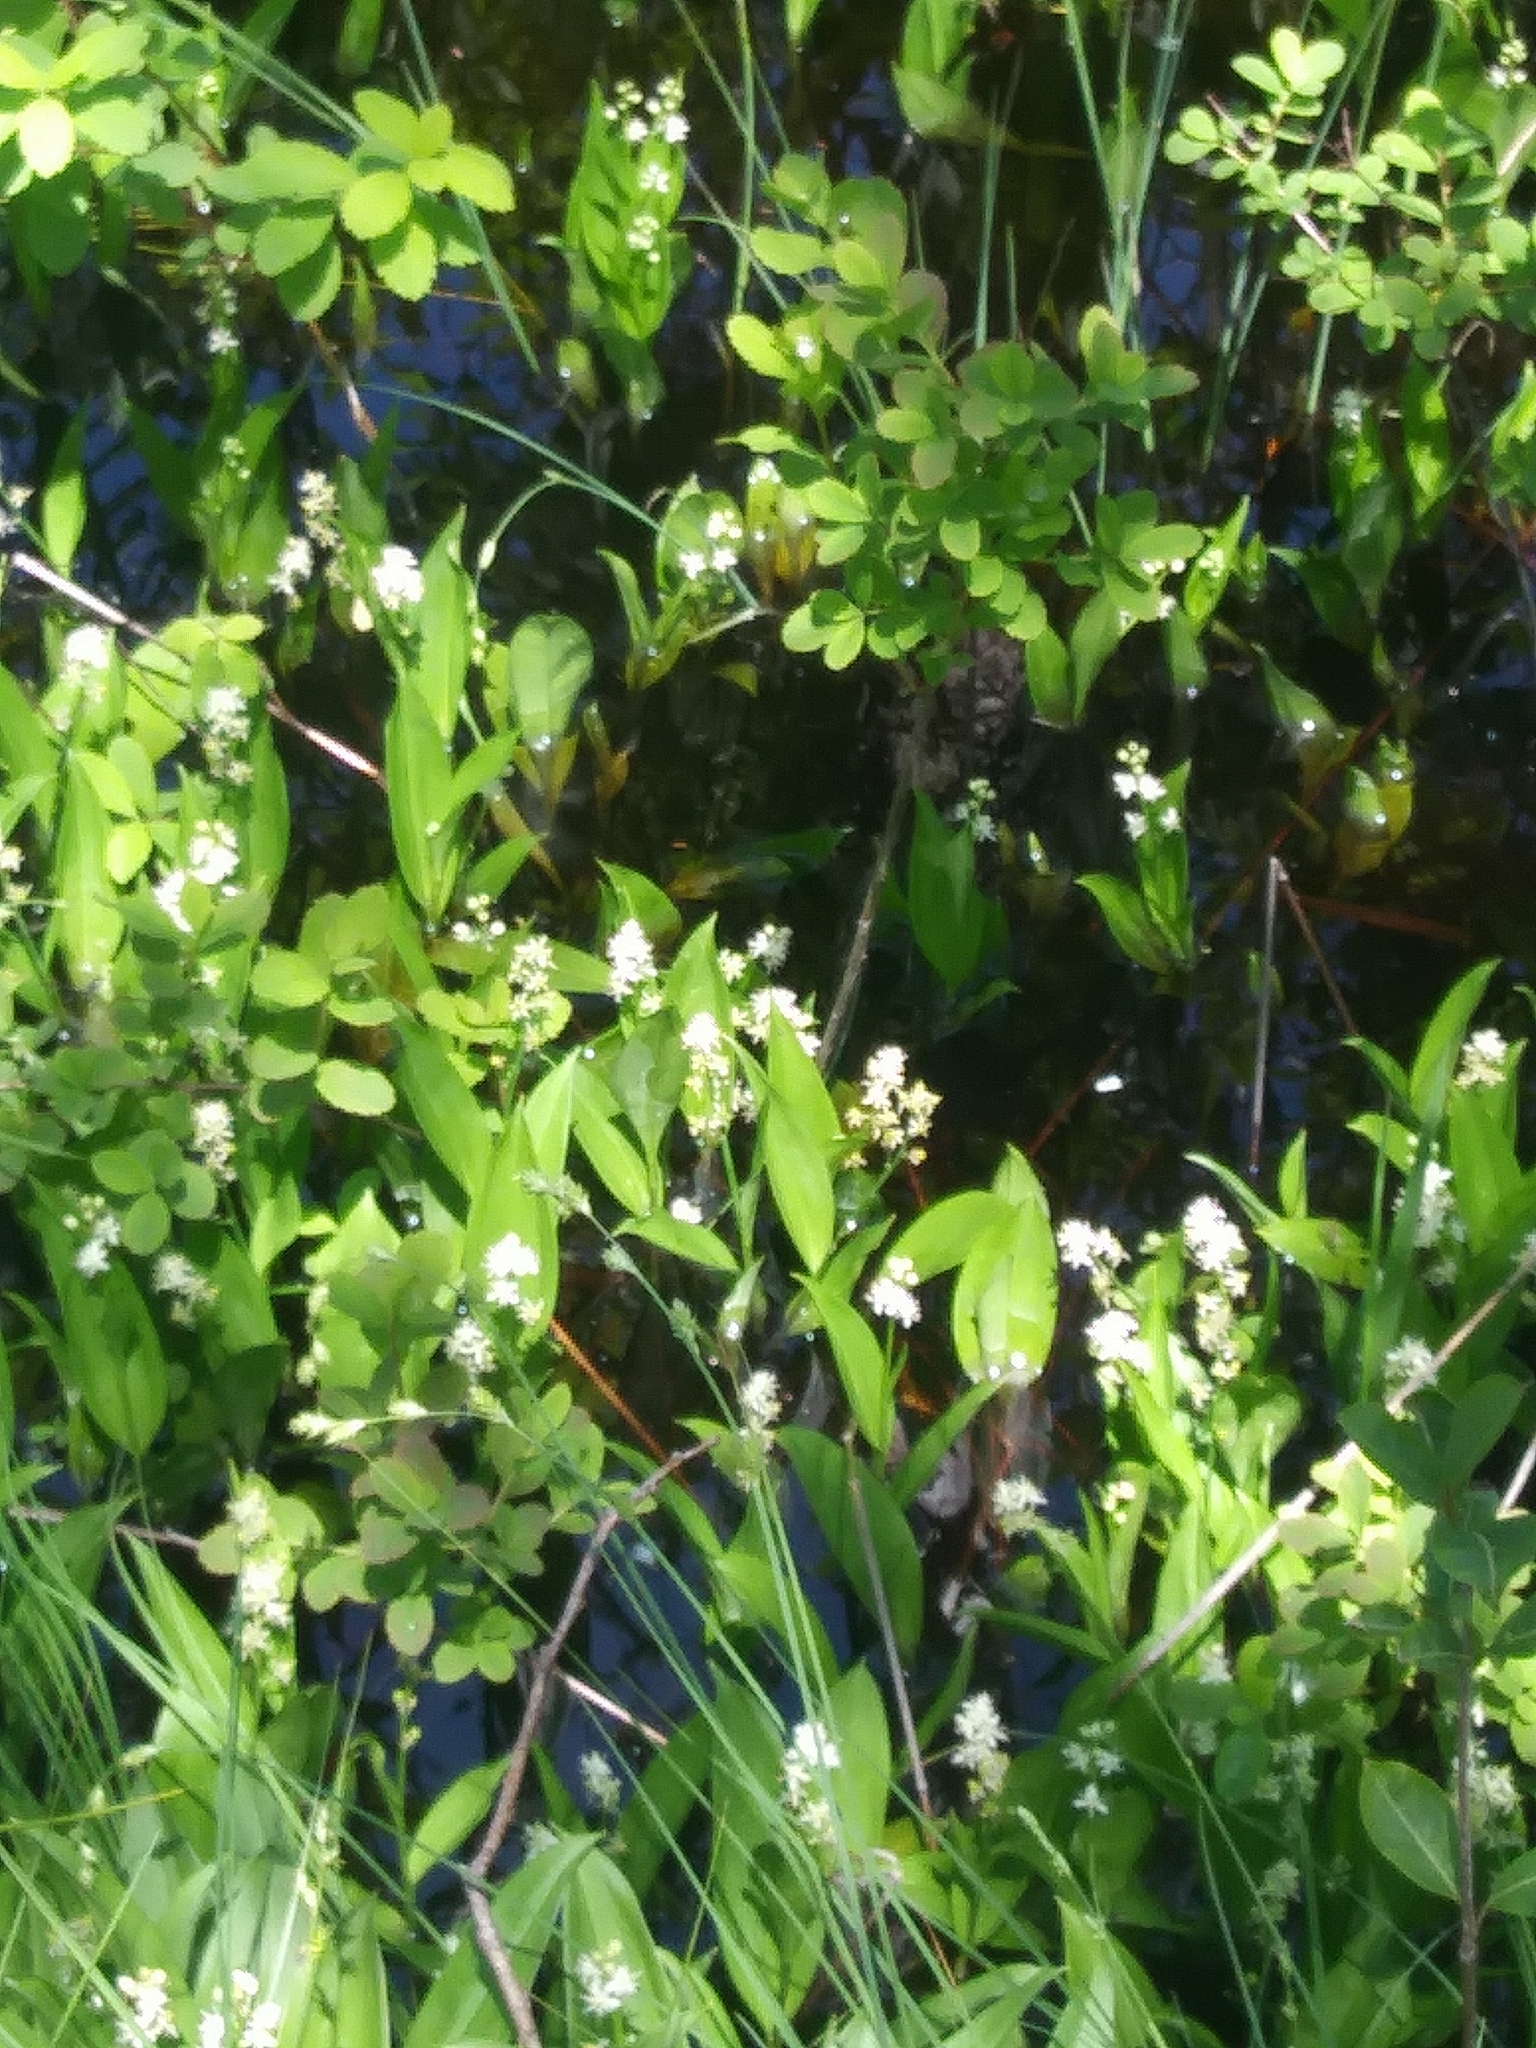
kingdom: Plantae
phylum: Tracheophyta
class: Liliopsida
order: Asparagales
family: Asparagaceae
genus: Maianthemum
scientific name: Maianthemum trifolium
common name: Swamp false solomon's seal
